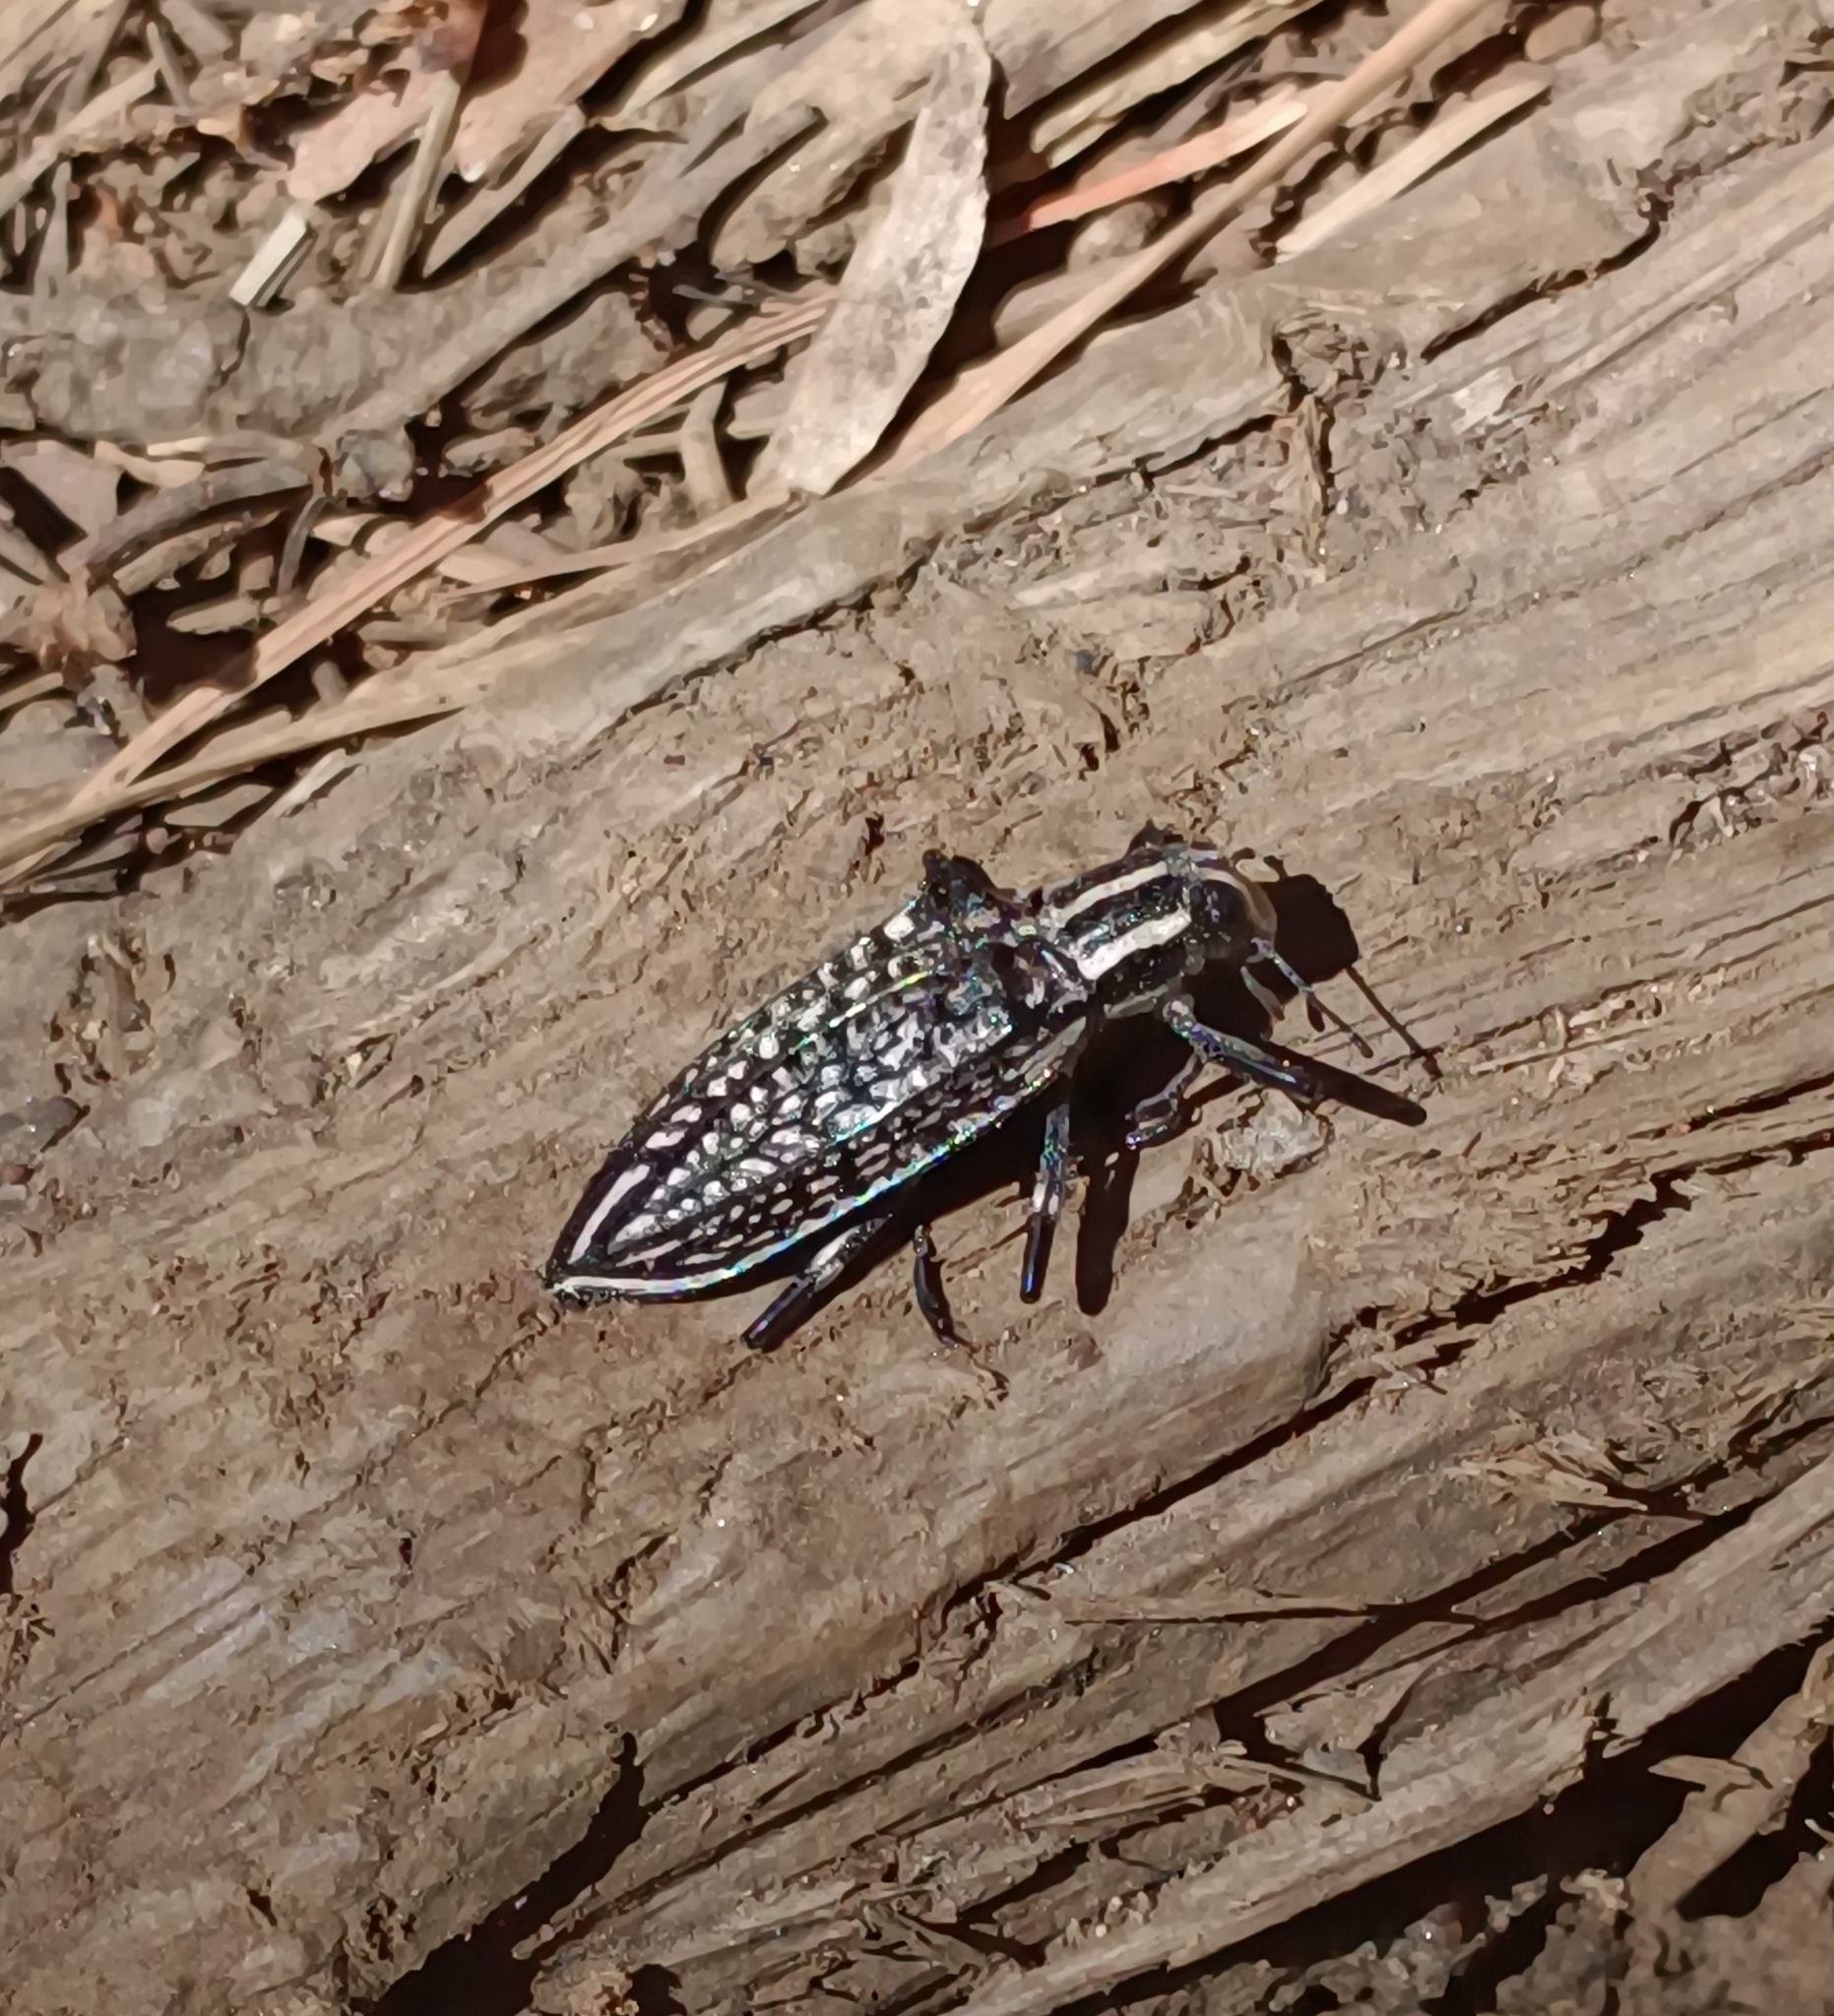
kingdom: Animalia
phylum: Arthropoda
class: Insecta
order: Coleoptera
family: Tenebrionidae
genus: Homocyrtus
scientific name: Homocyrtus
